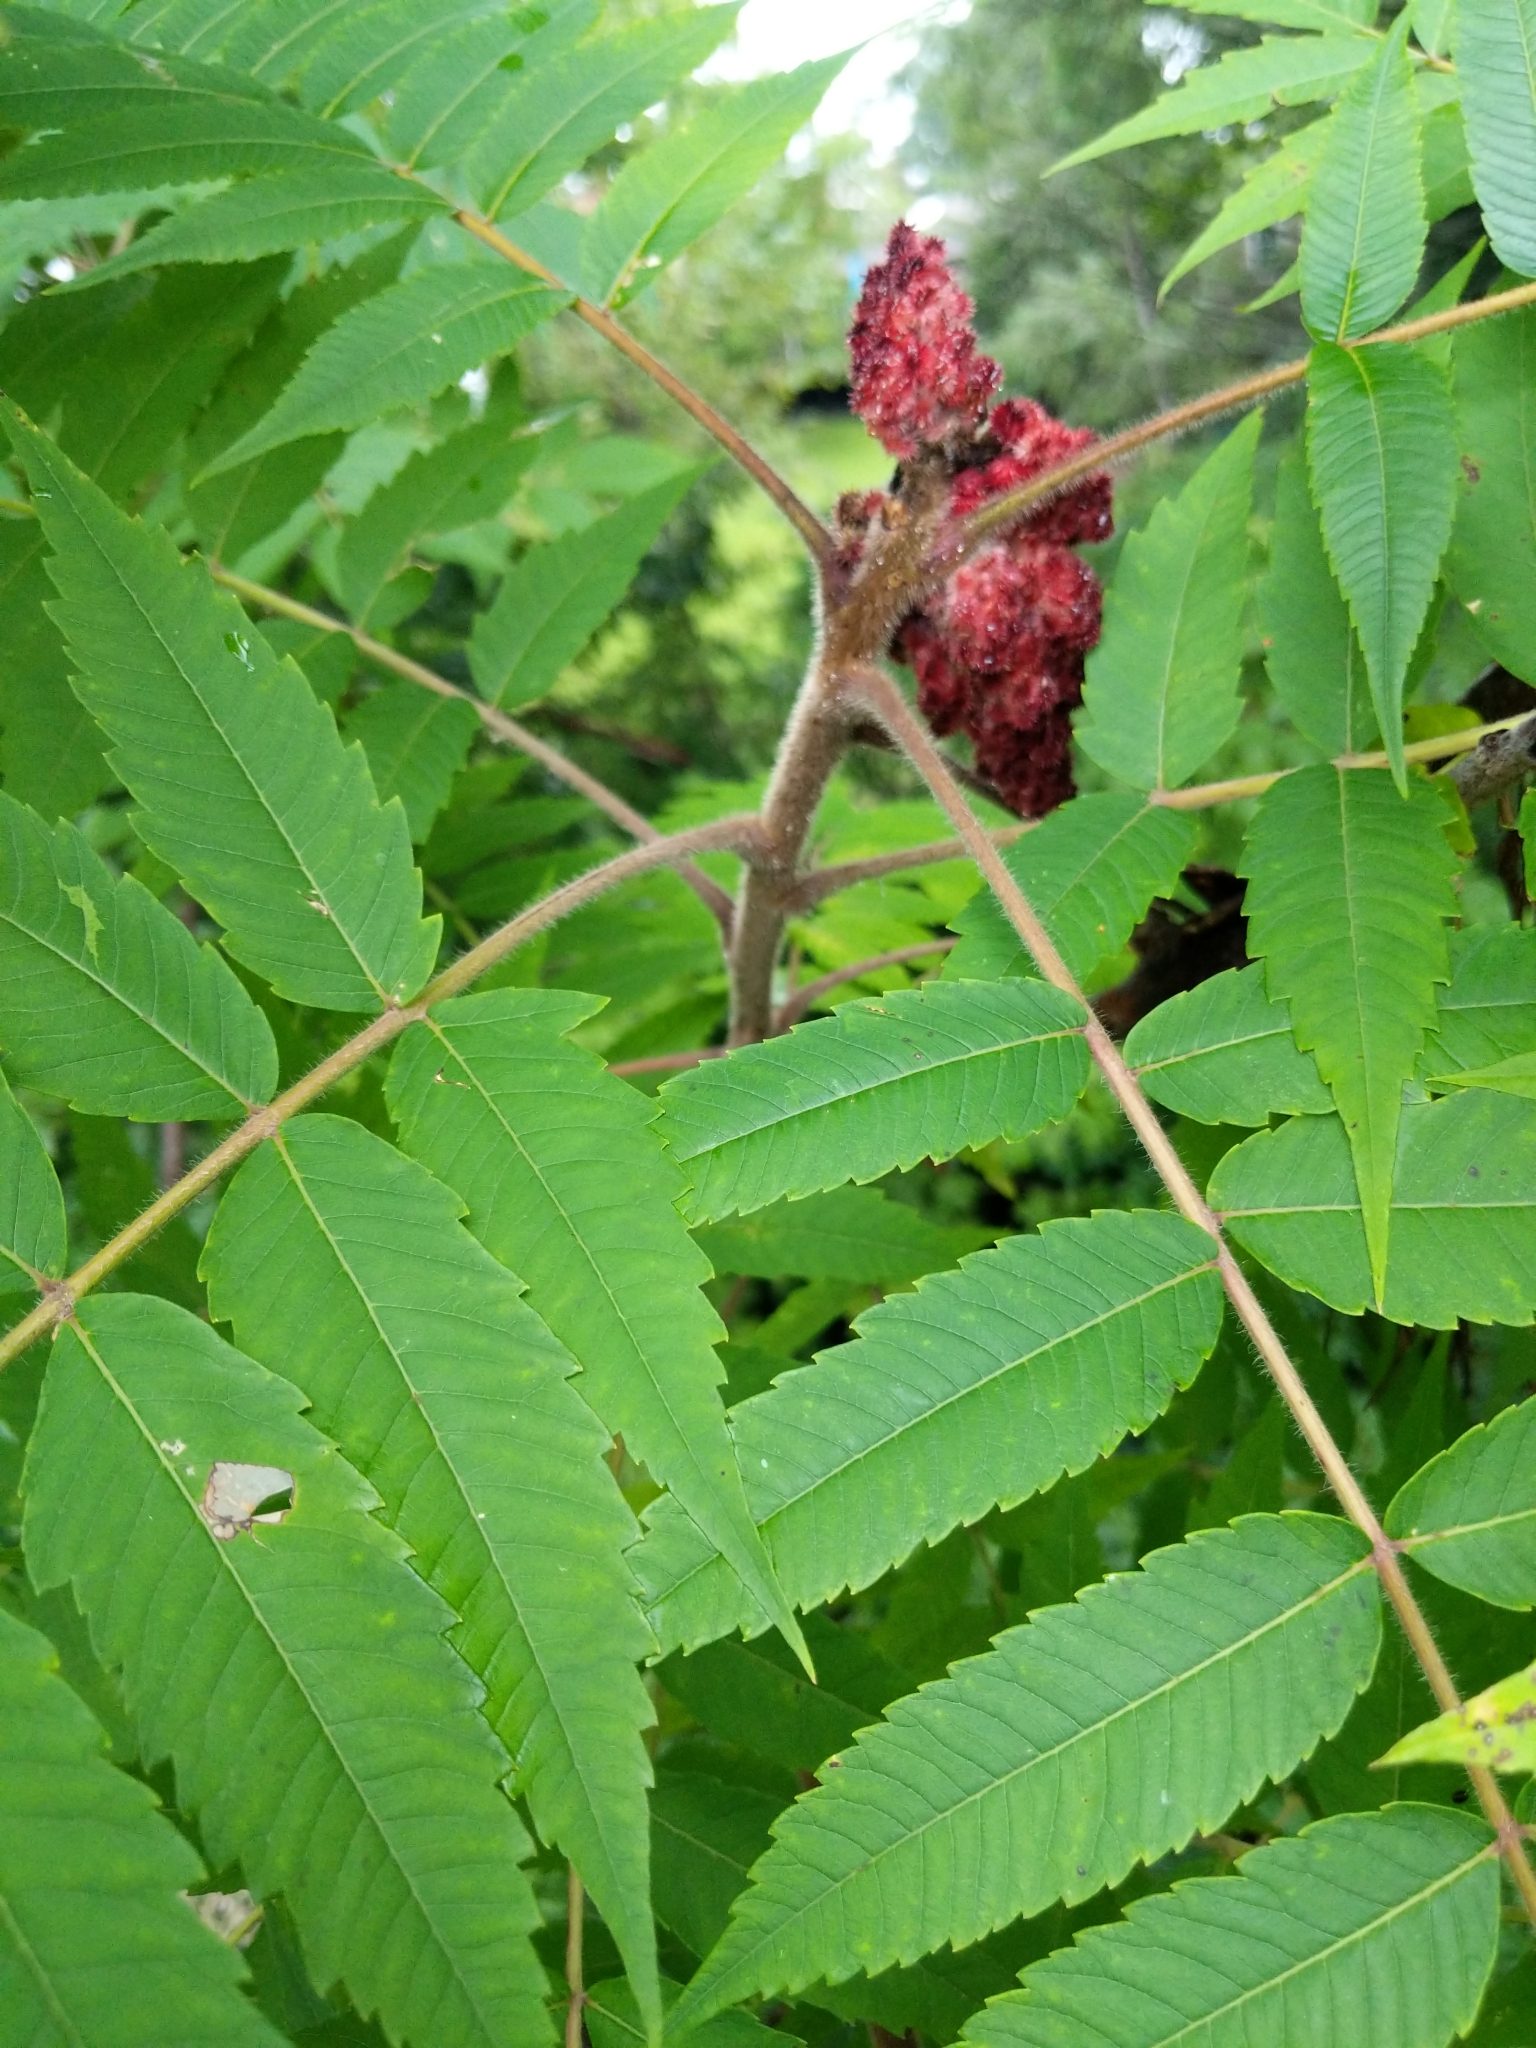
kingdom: Plantae
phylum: Tracheophyta
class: Magnoliopsida
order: Sapindales
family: Anacardiaceae
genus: Rhus
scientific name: Rhus typhina
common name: Staghorn sumac
